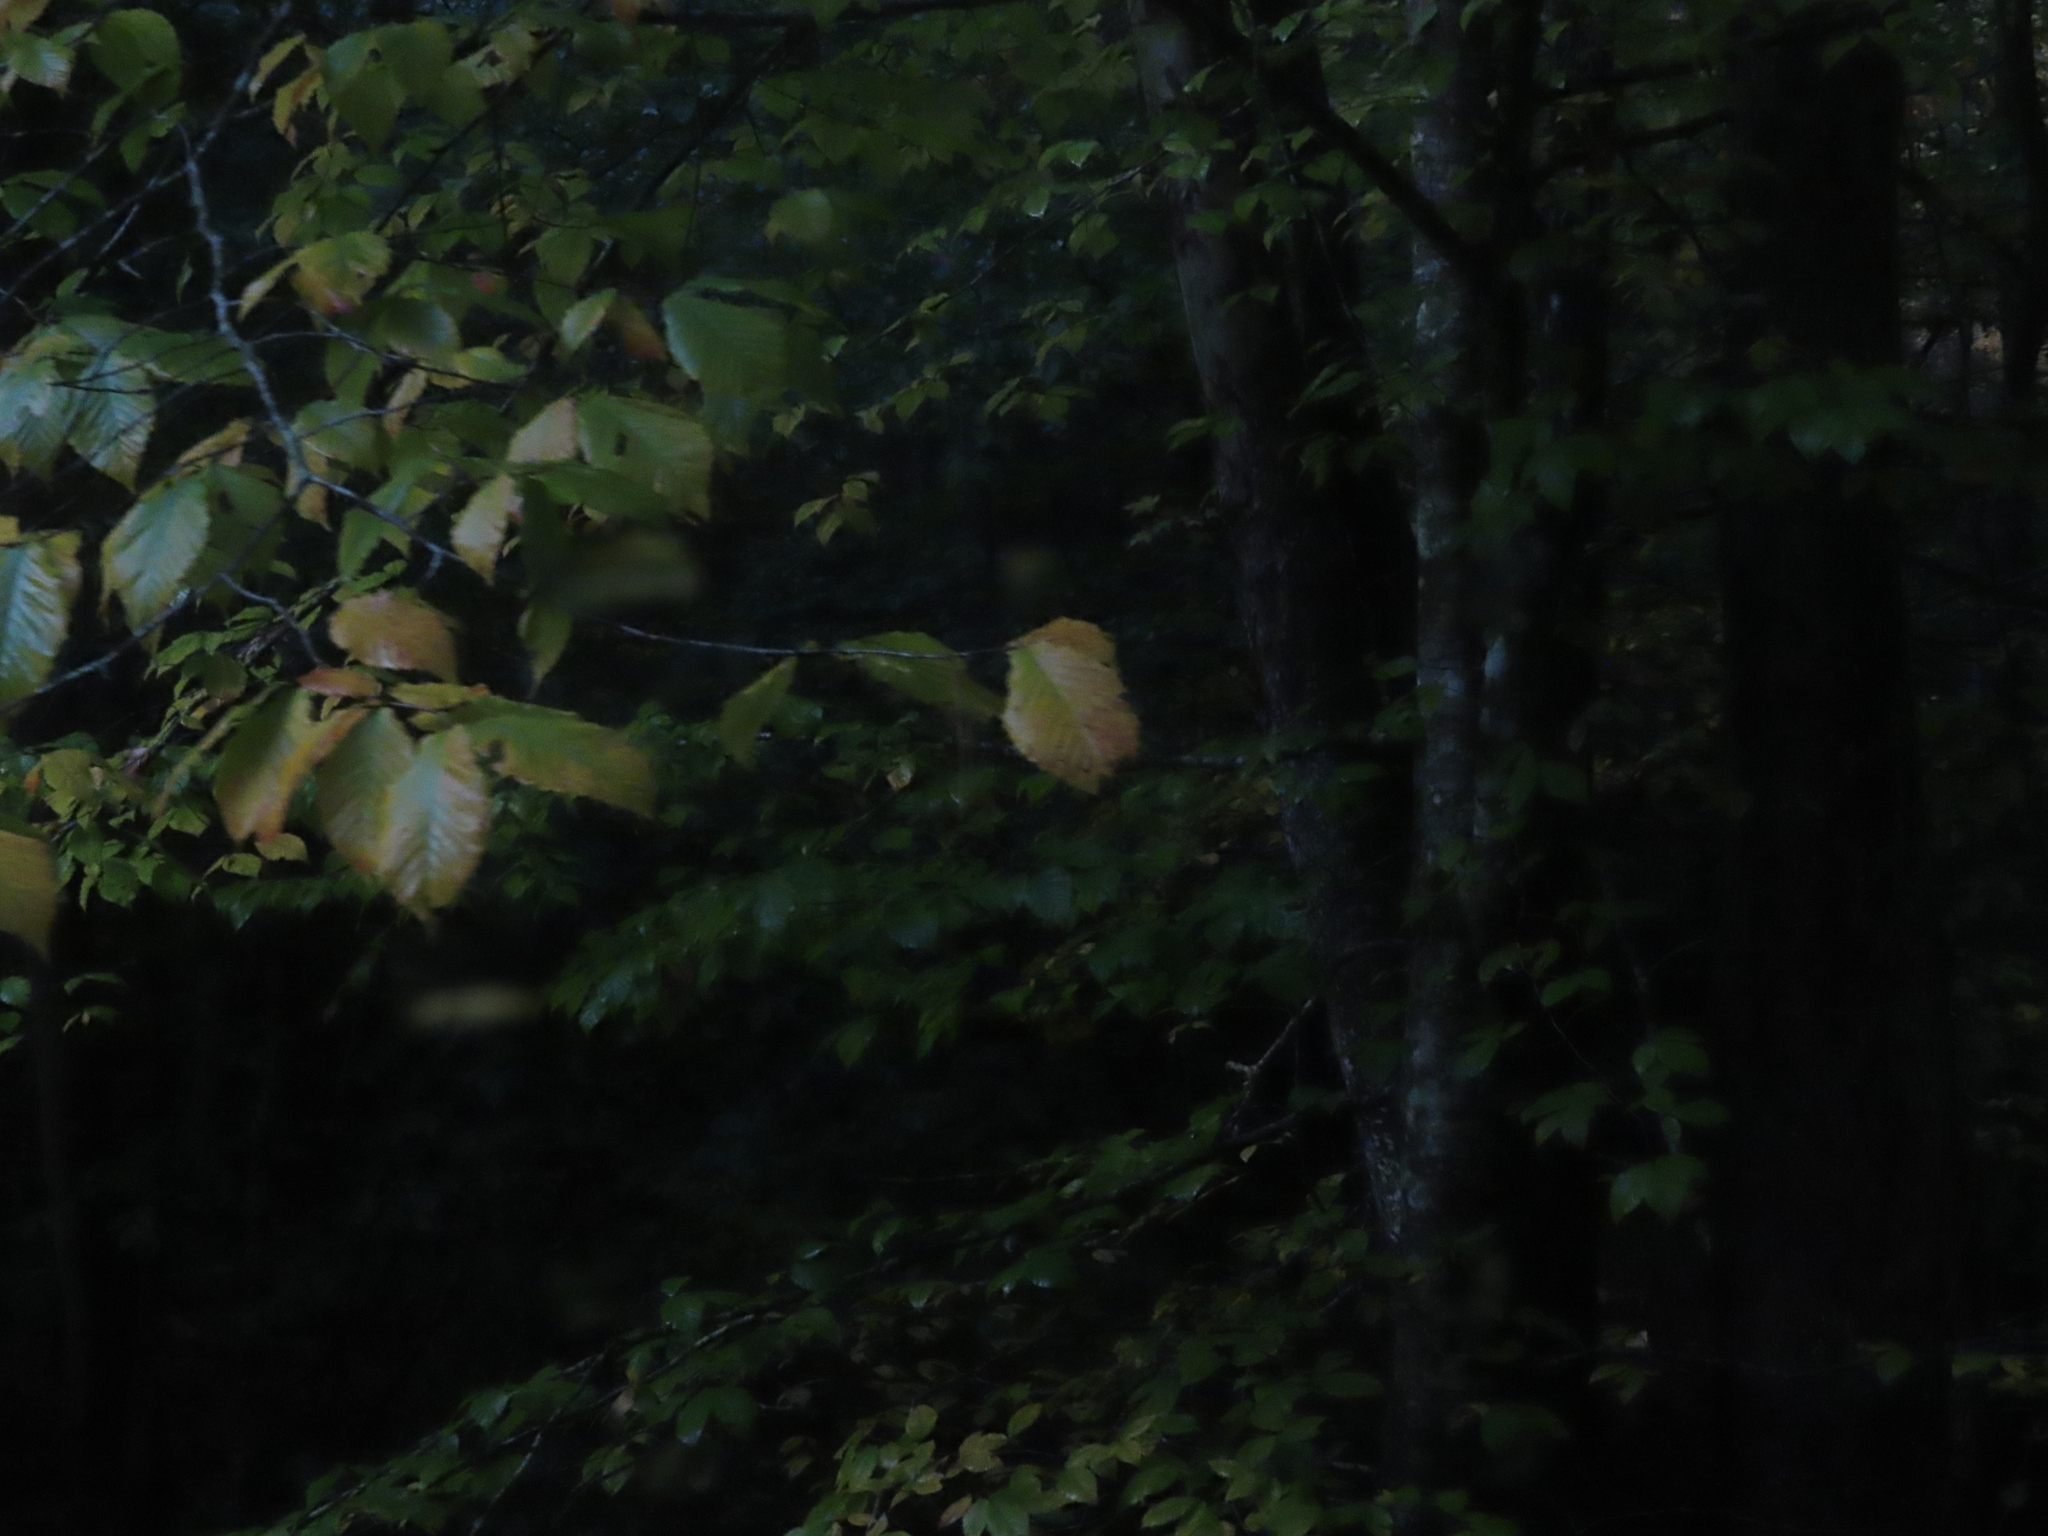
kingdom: Plantae
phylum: Tracheophyta
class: Magnoliopsida
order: Fagales
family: Fagaceae
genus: Fagus
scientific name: Fagus grandifolia
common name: American beech
